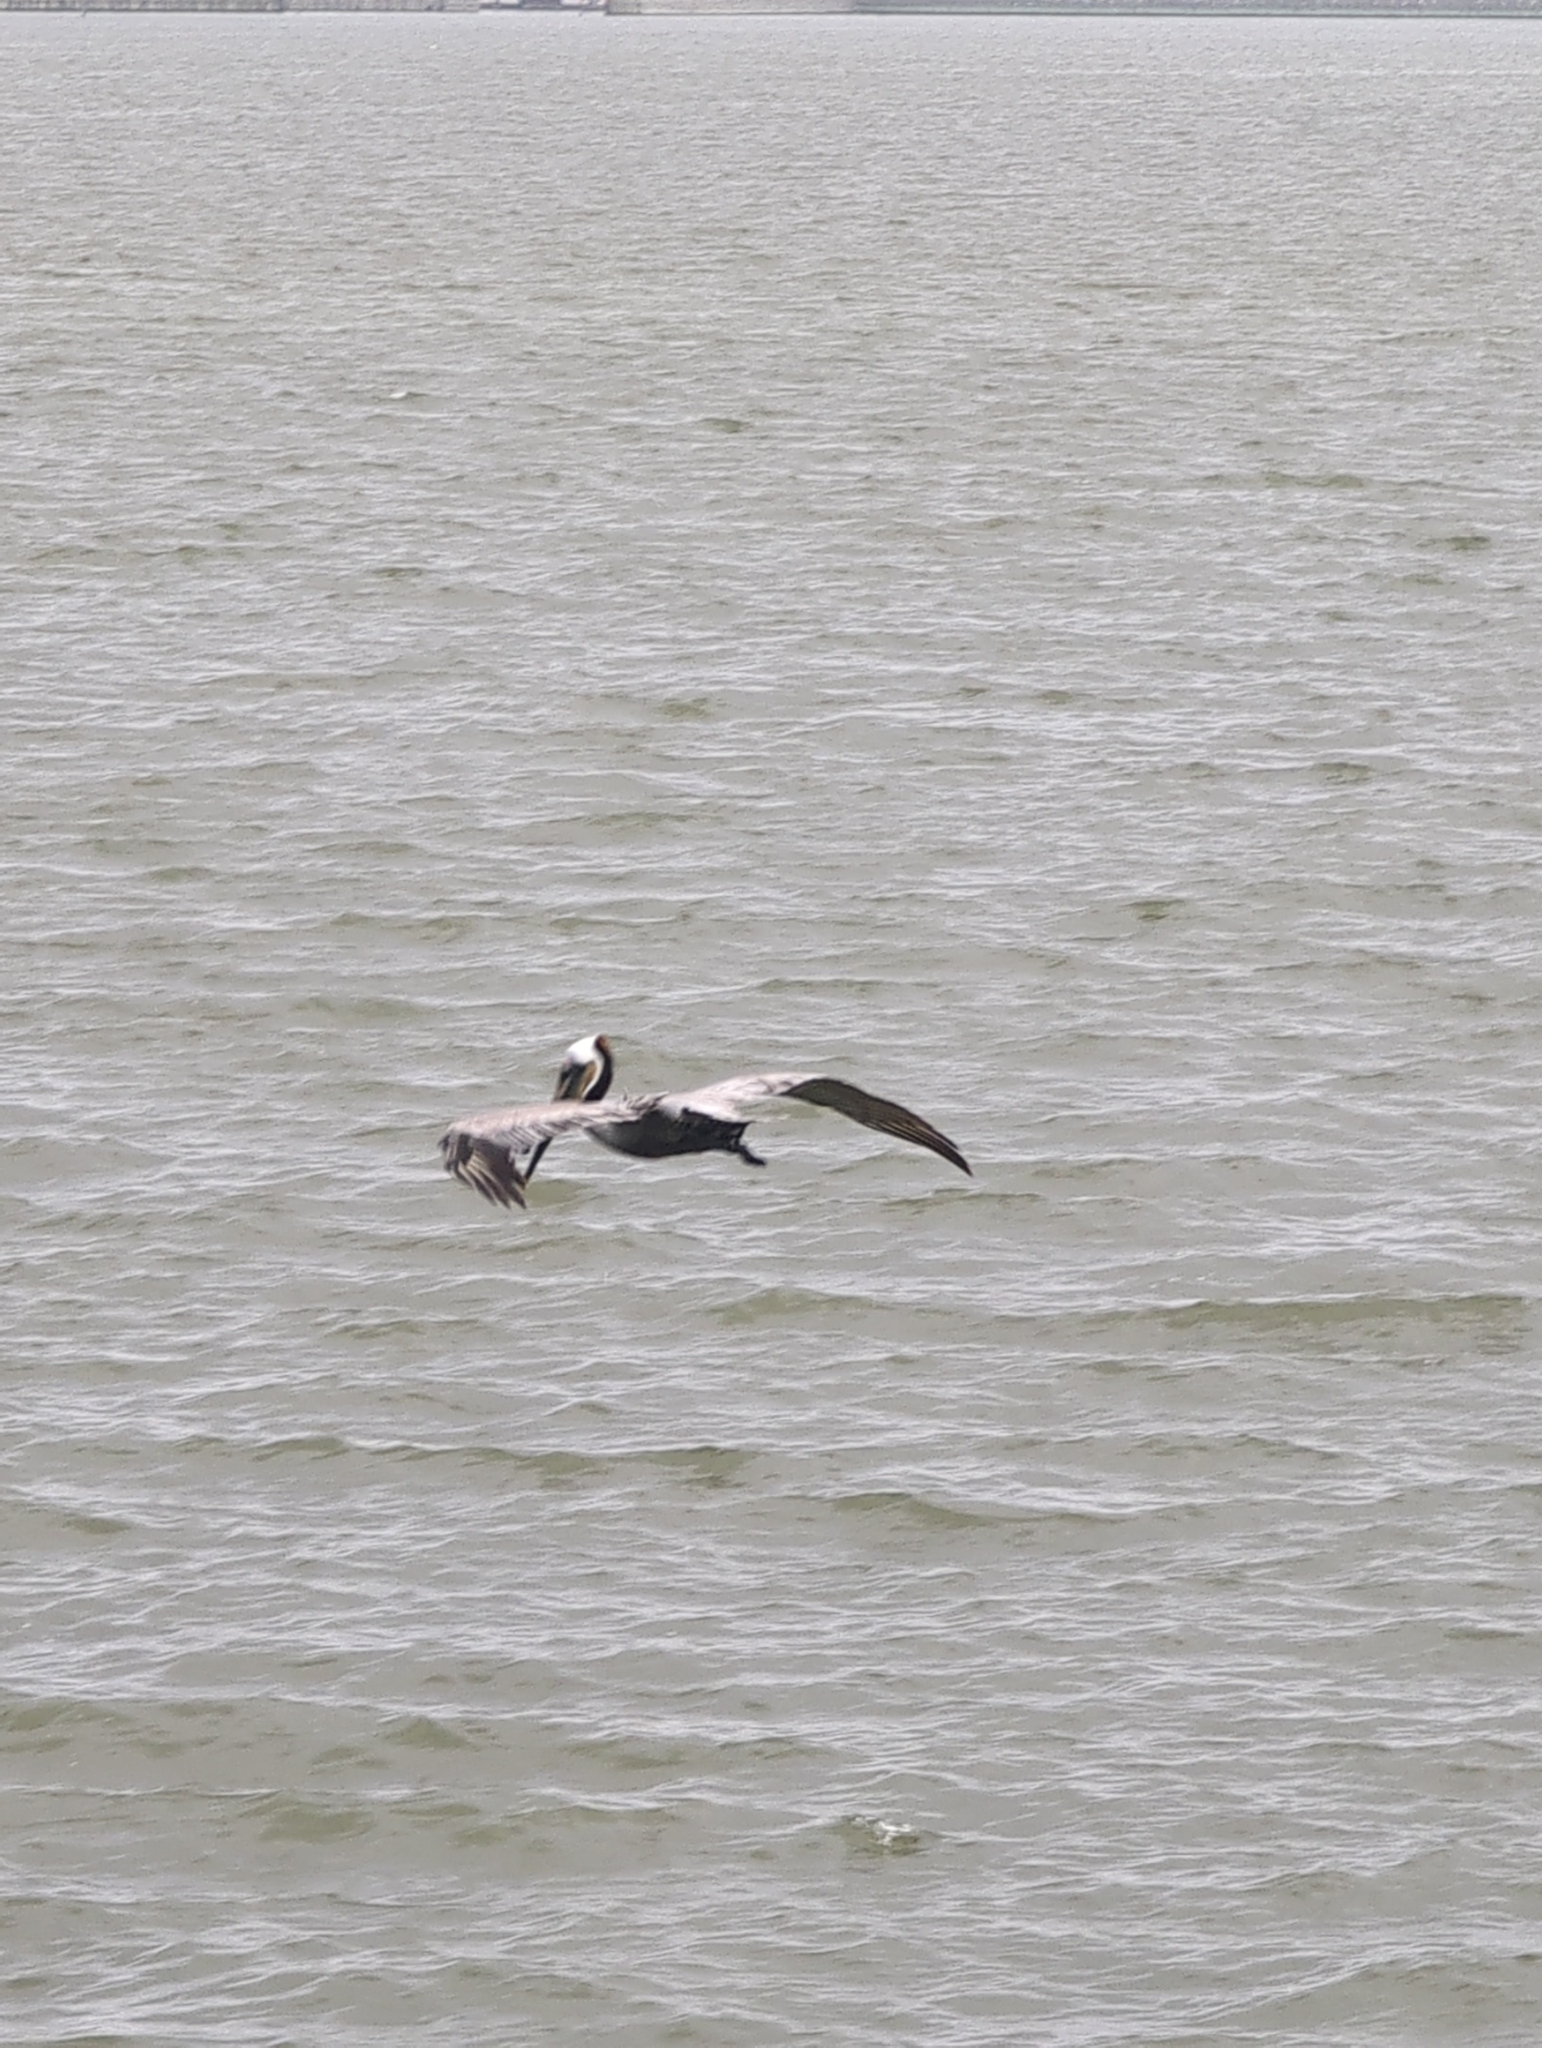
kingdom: Animalia
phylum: Chordata
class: Aves
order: Pelecaniformes
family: Pelecanidae
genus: Pelecanus
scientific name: Pelecanus occidentalis
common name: Brown pelican
